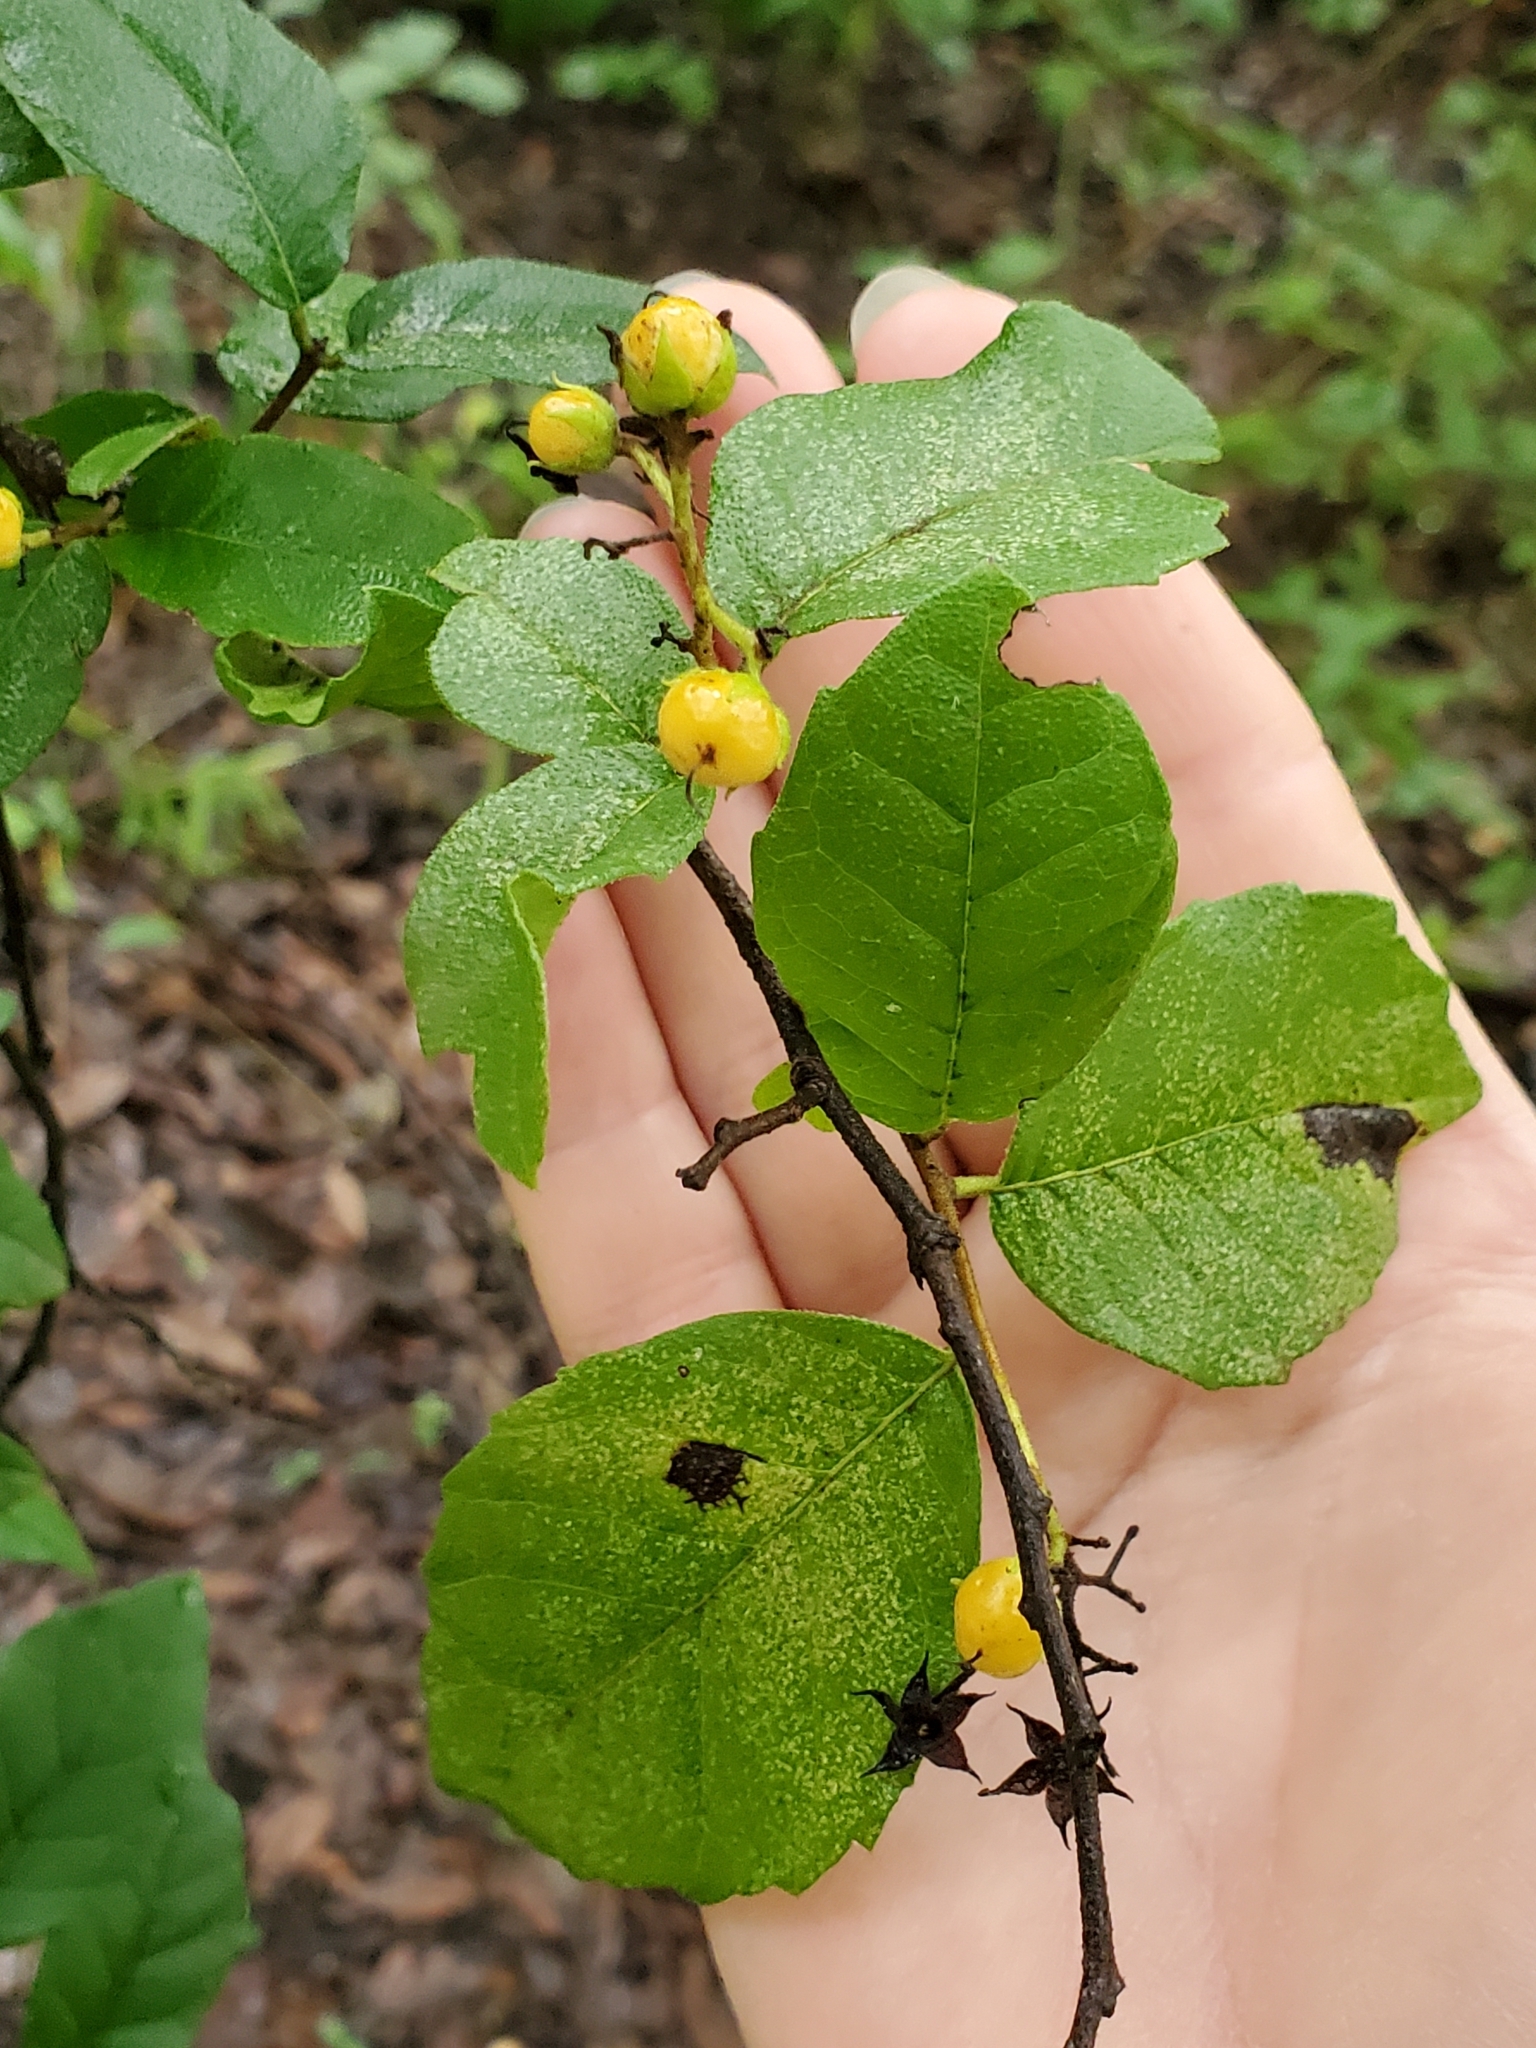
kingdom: Plantae
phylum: Tracheophyta
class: Magnoliopsida
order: Boraginales
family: Ehretiaceae
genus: Ehretia
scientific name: Ehretia anacua
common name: Sugarberry
